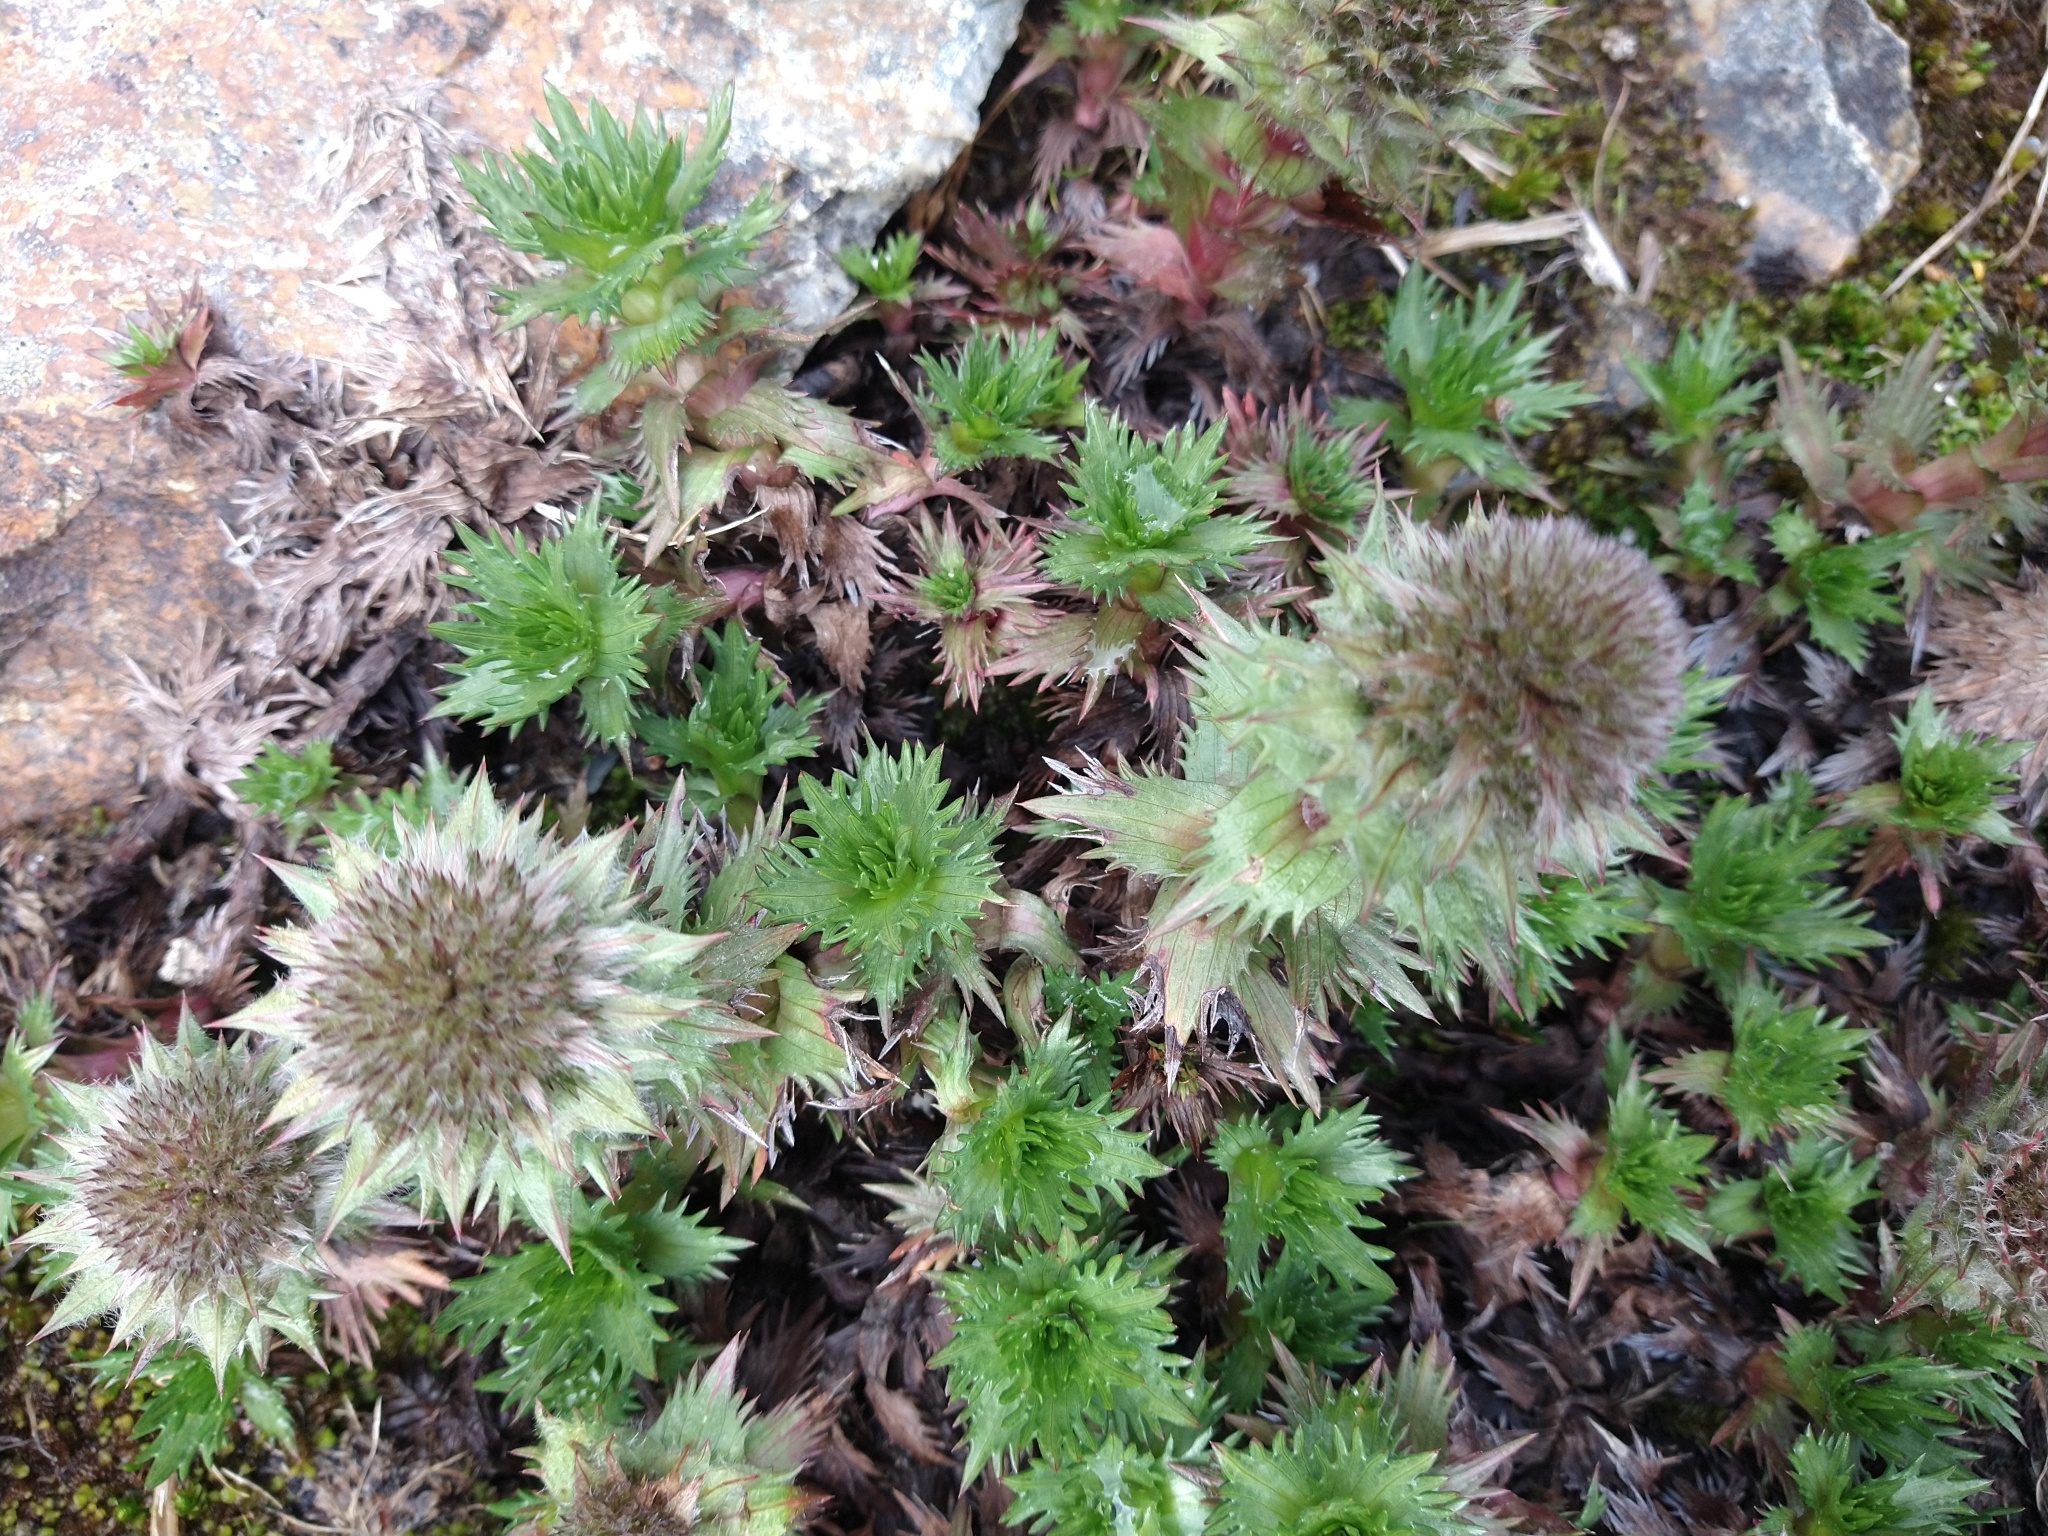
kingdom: Plantae
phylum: Tracheophyta
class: Magnoliopsida
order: Asterales
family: Asteraceae
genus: Nassauvia
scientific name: Nassauvia magellanica
